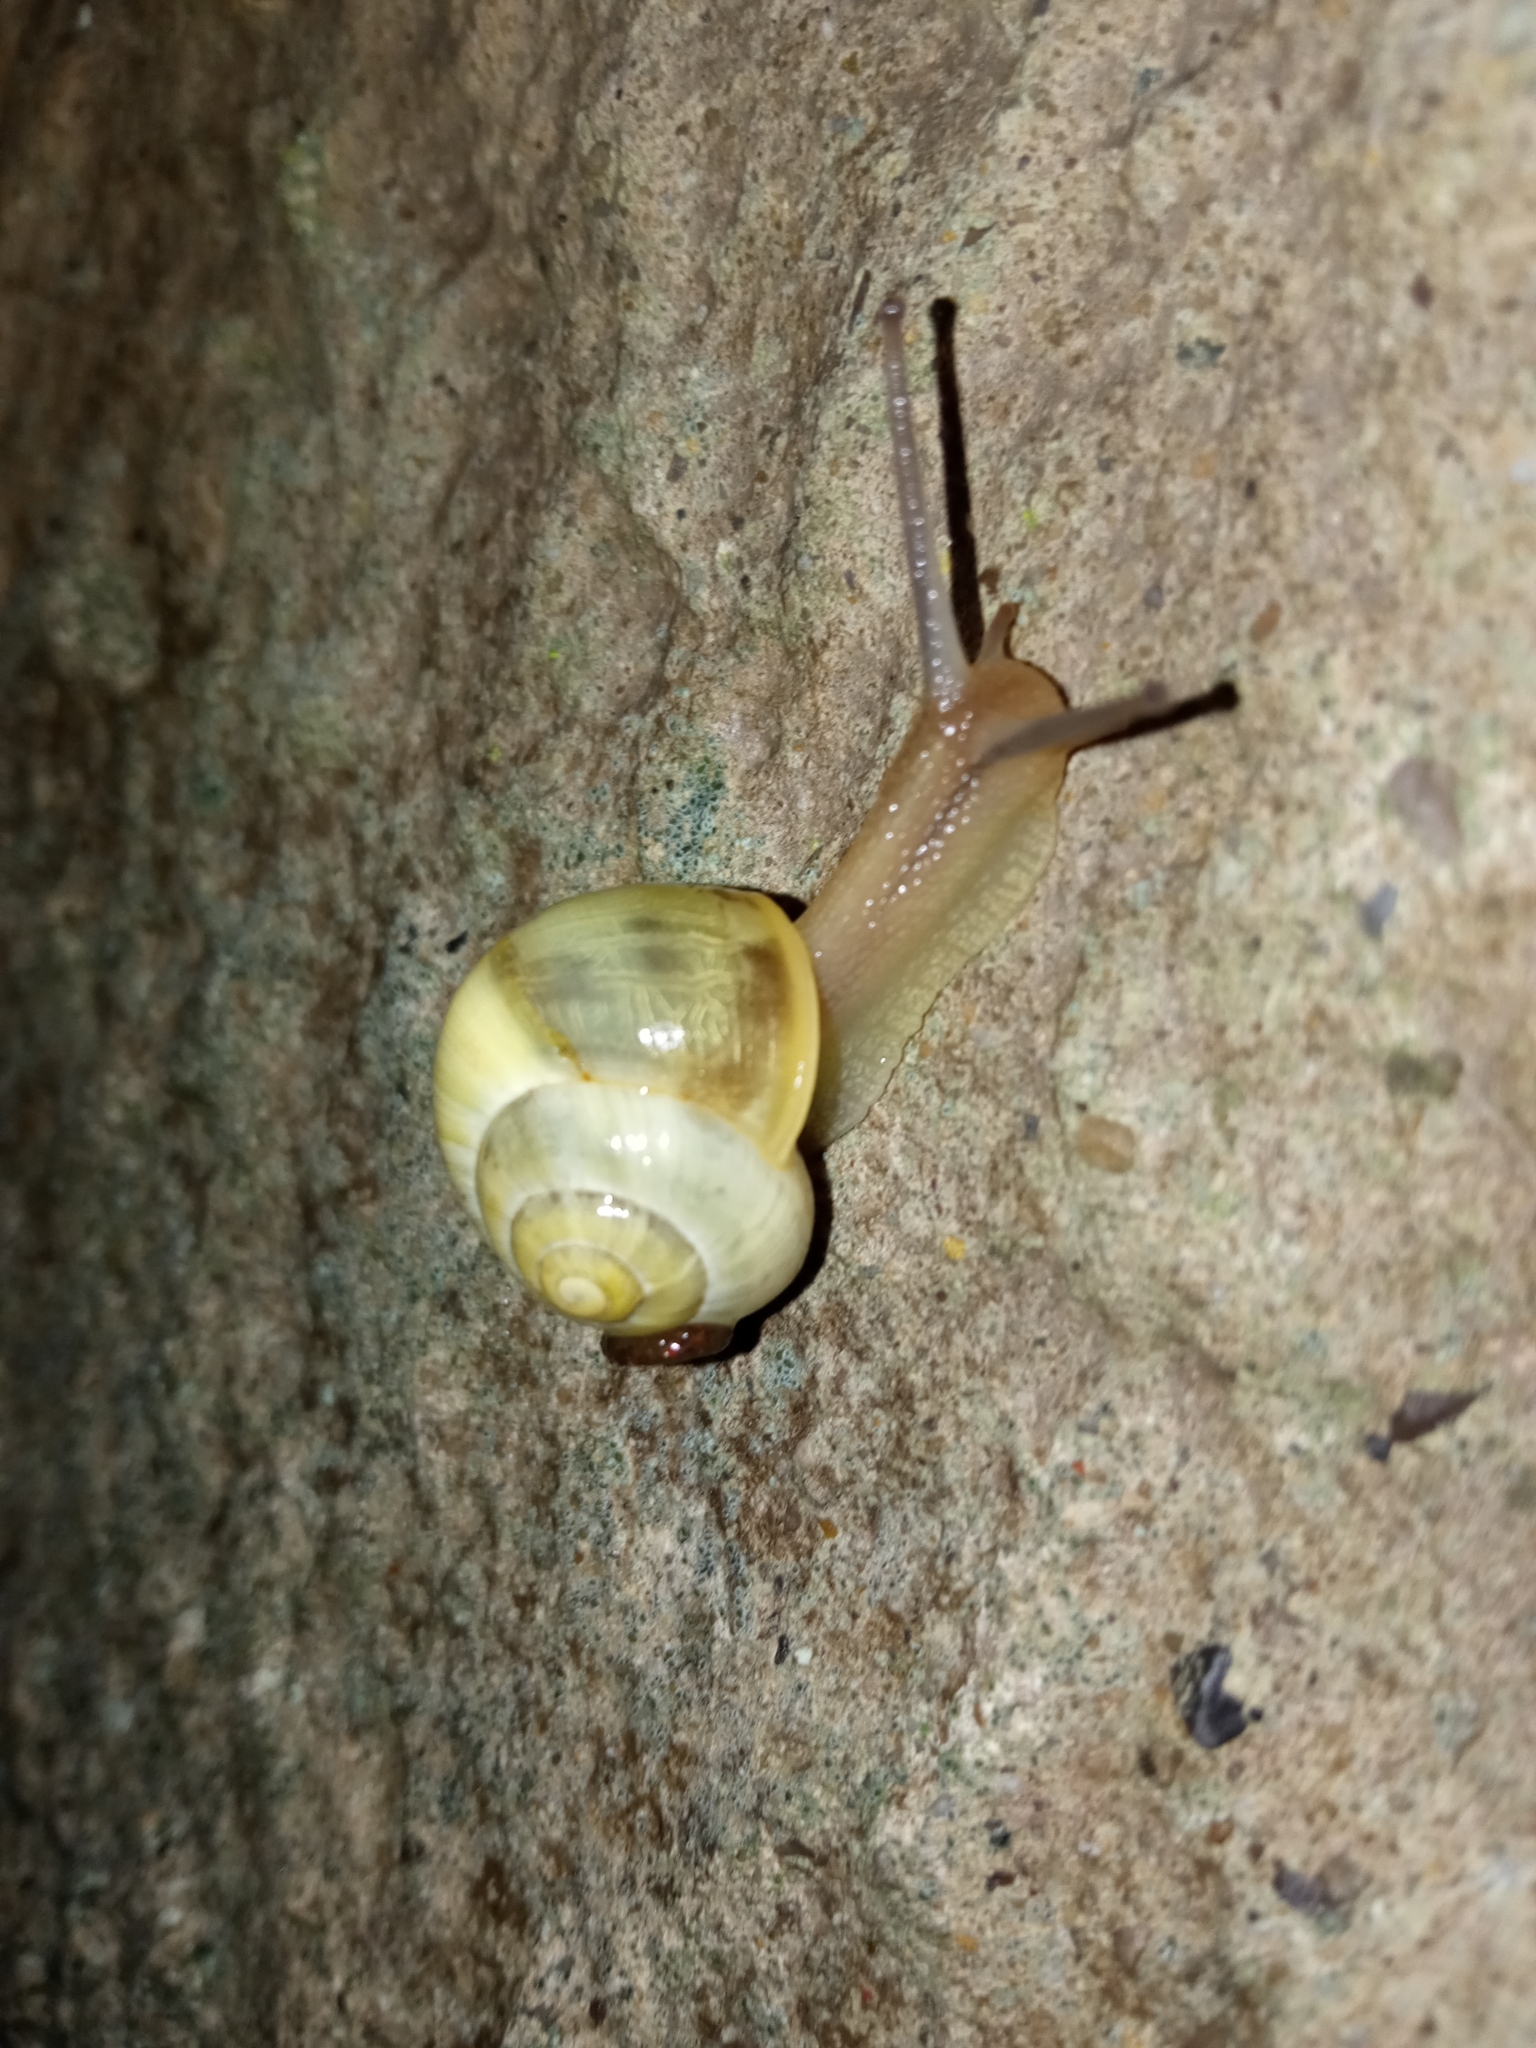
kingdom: Animalia
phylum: Mollusca
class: Gastropoda
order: Stylommatophora
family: Helicidae
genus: Cepaea
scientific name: Cepaea
